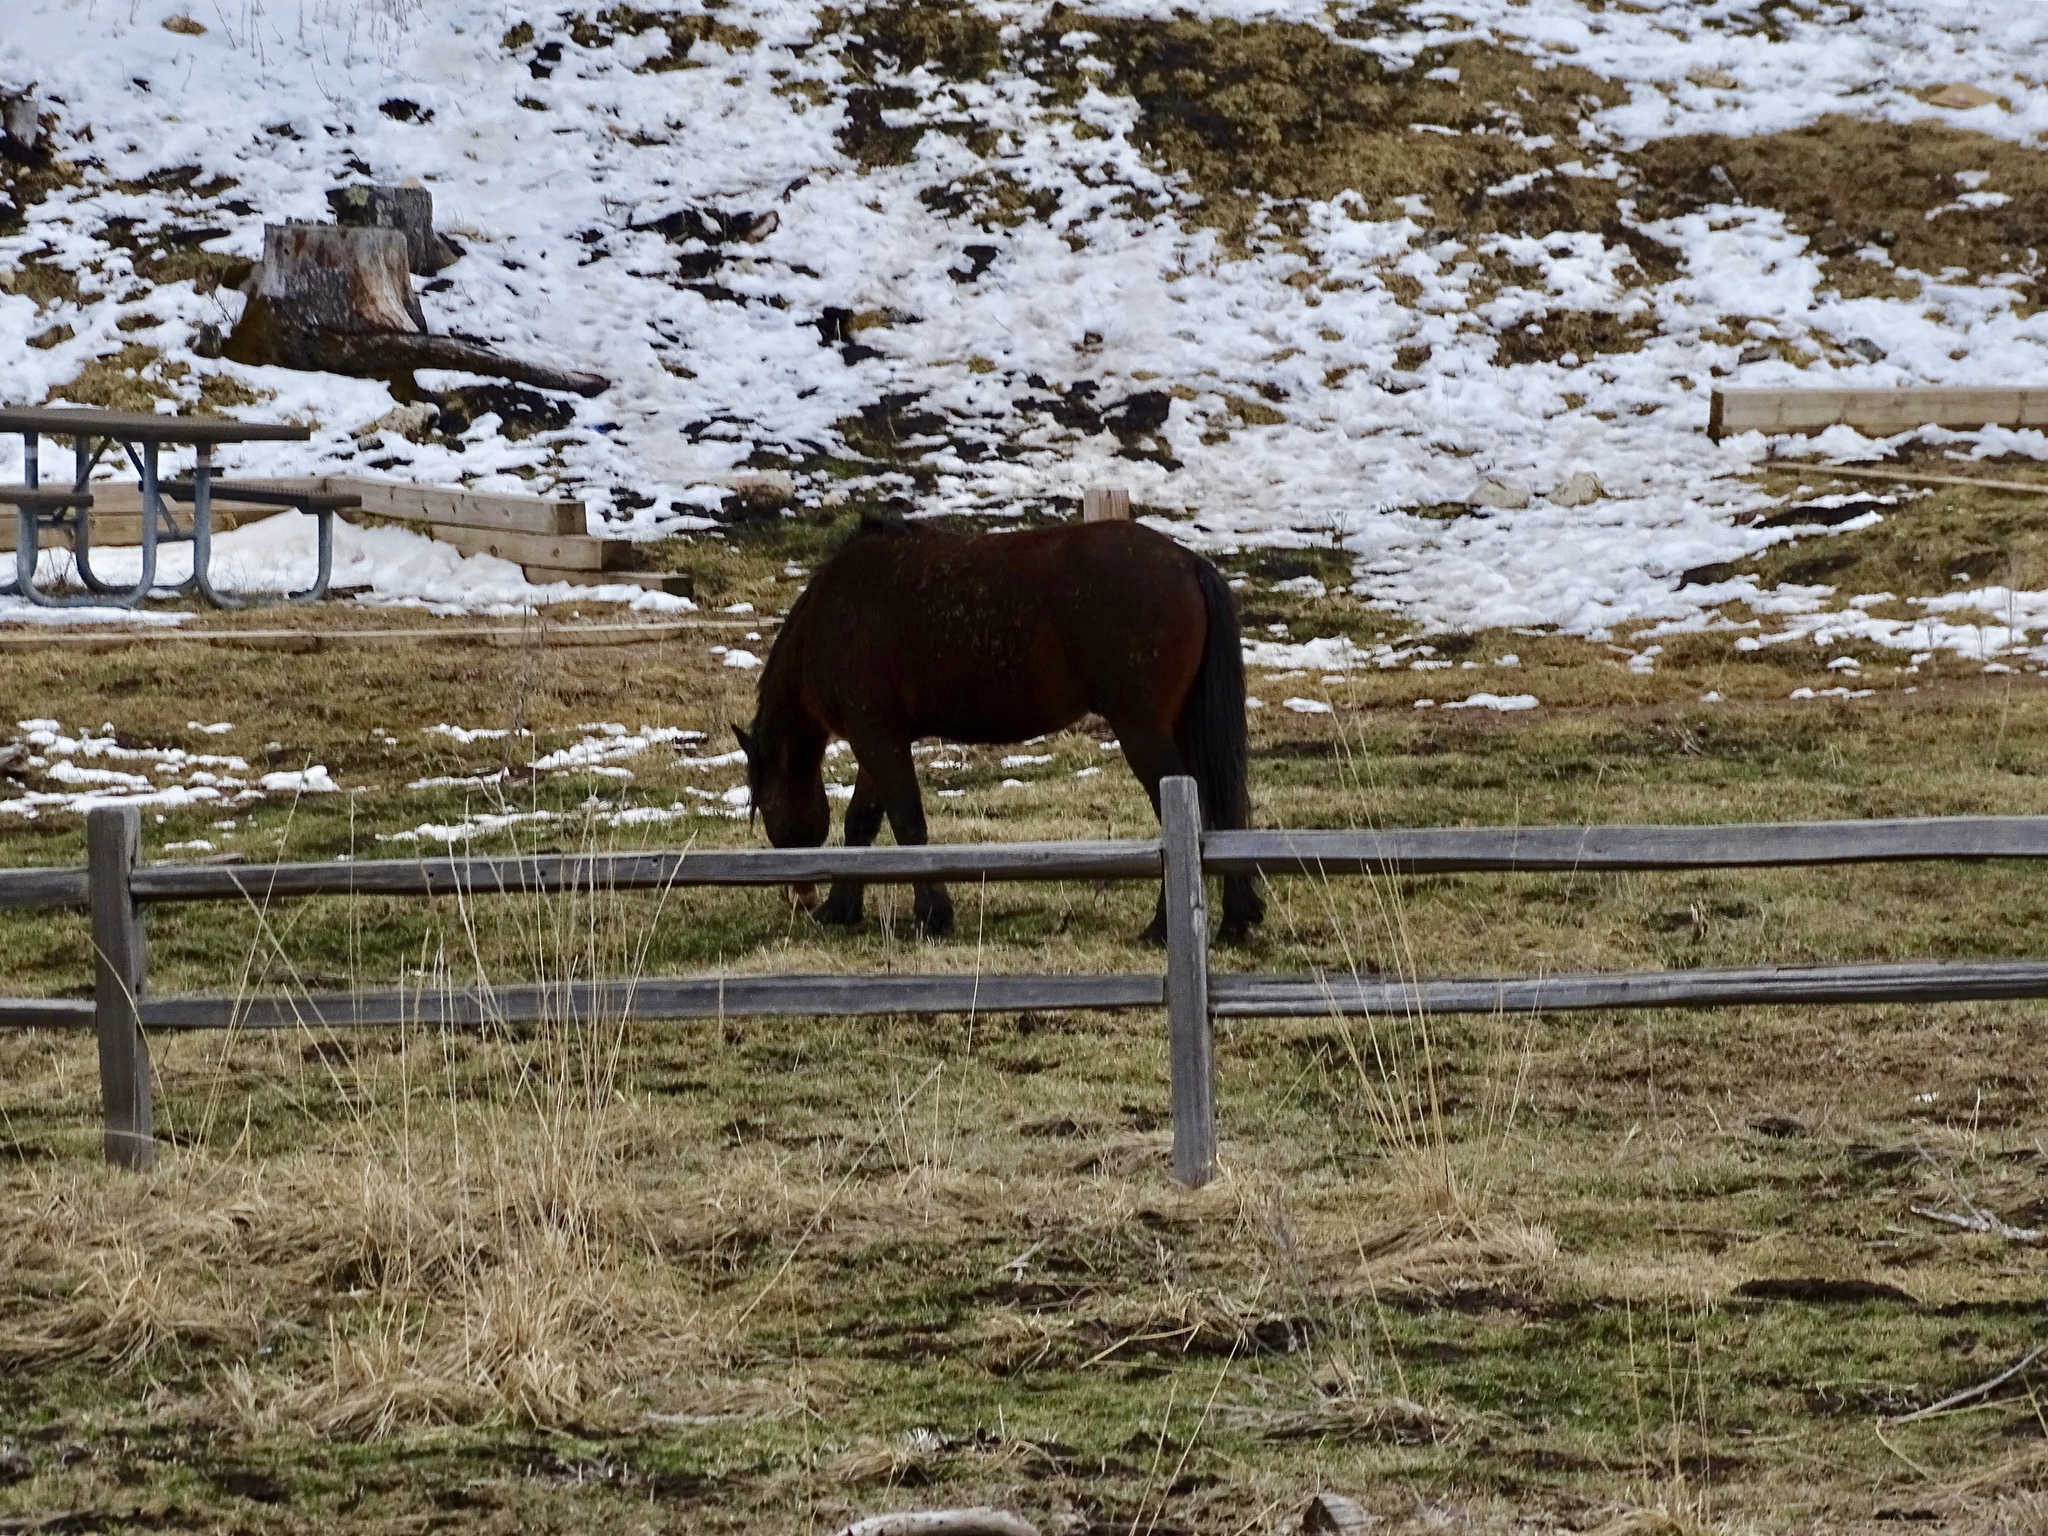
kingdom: Animalia
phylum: Chordata
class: Mammalia
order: Perissodactyla
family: Equidae
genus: Equus
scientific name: Equus caballus
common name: Horse
